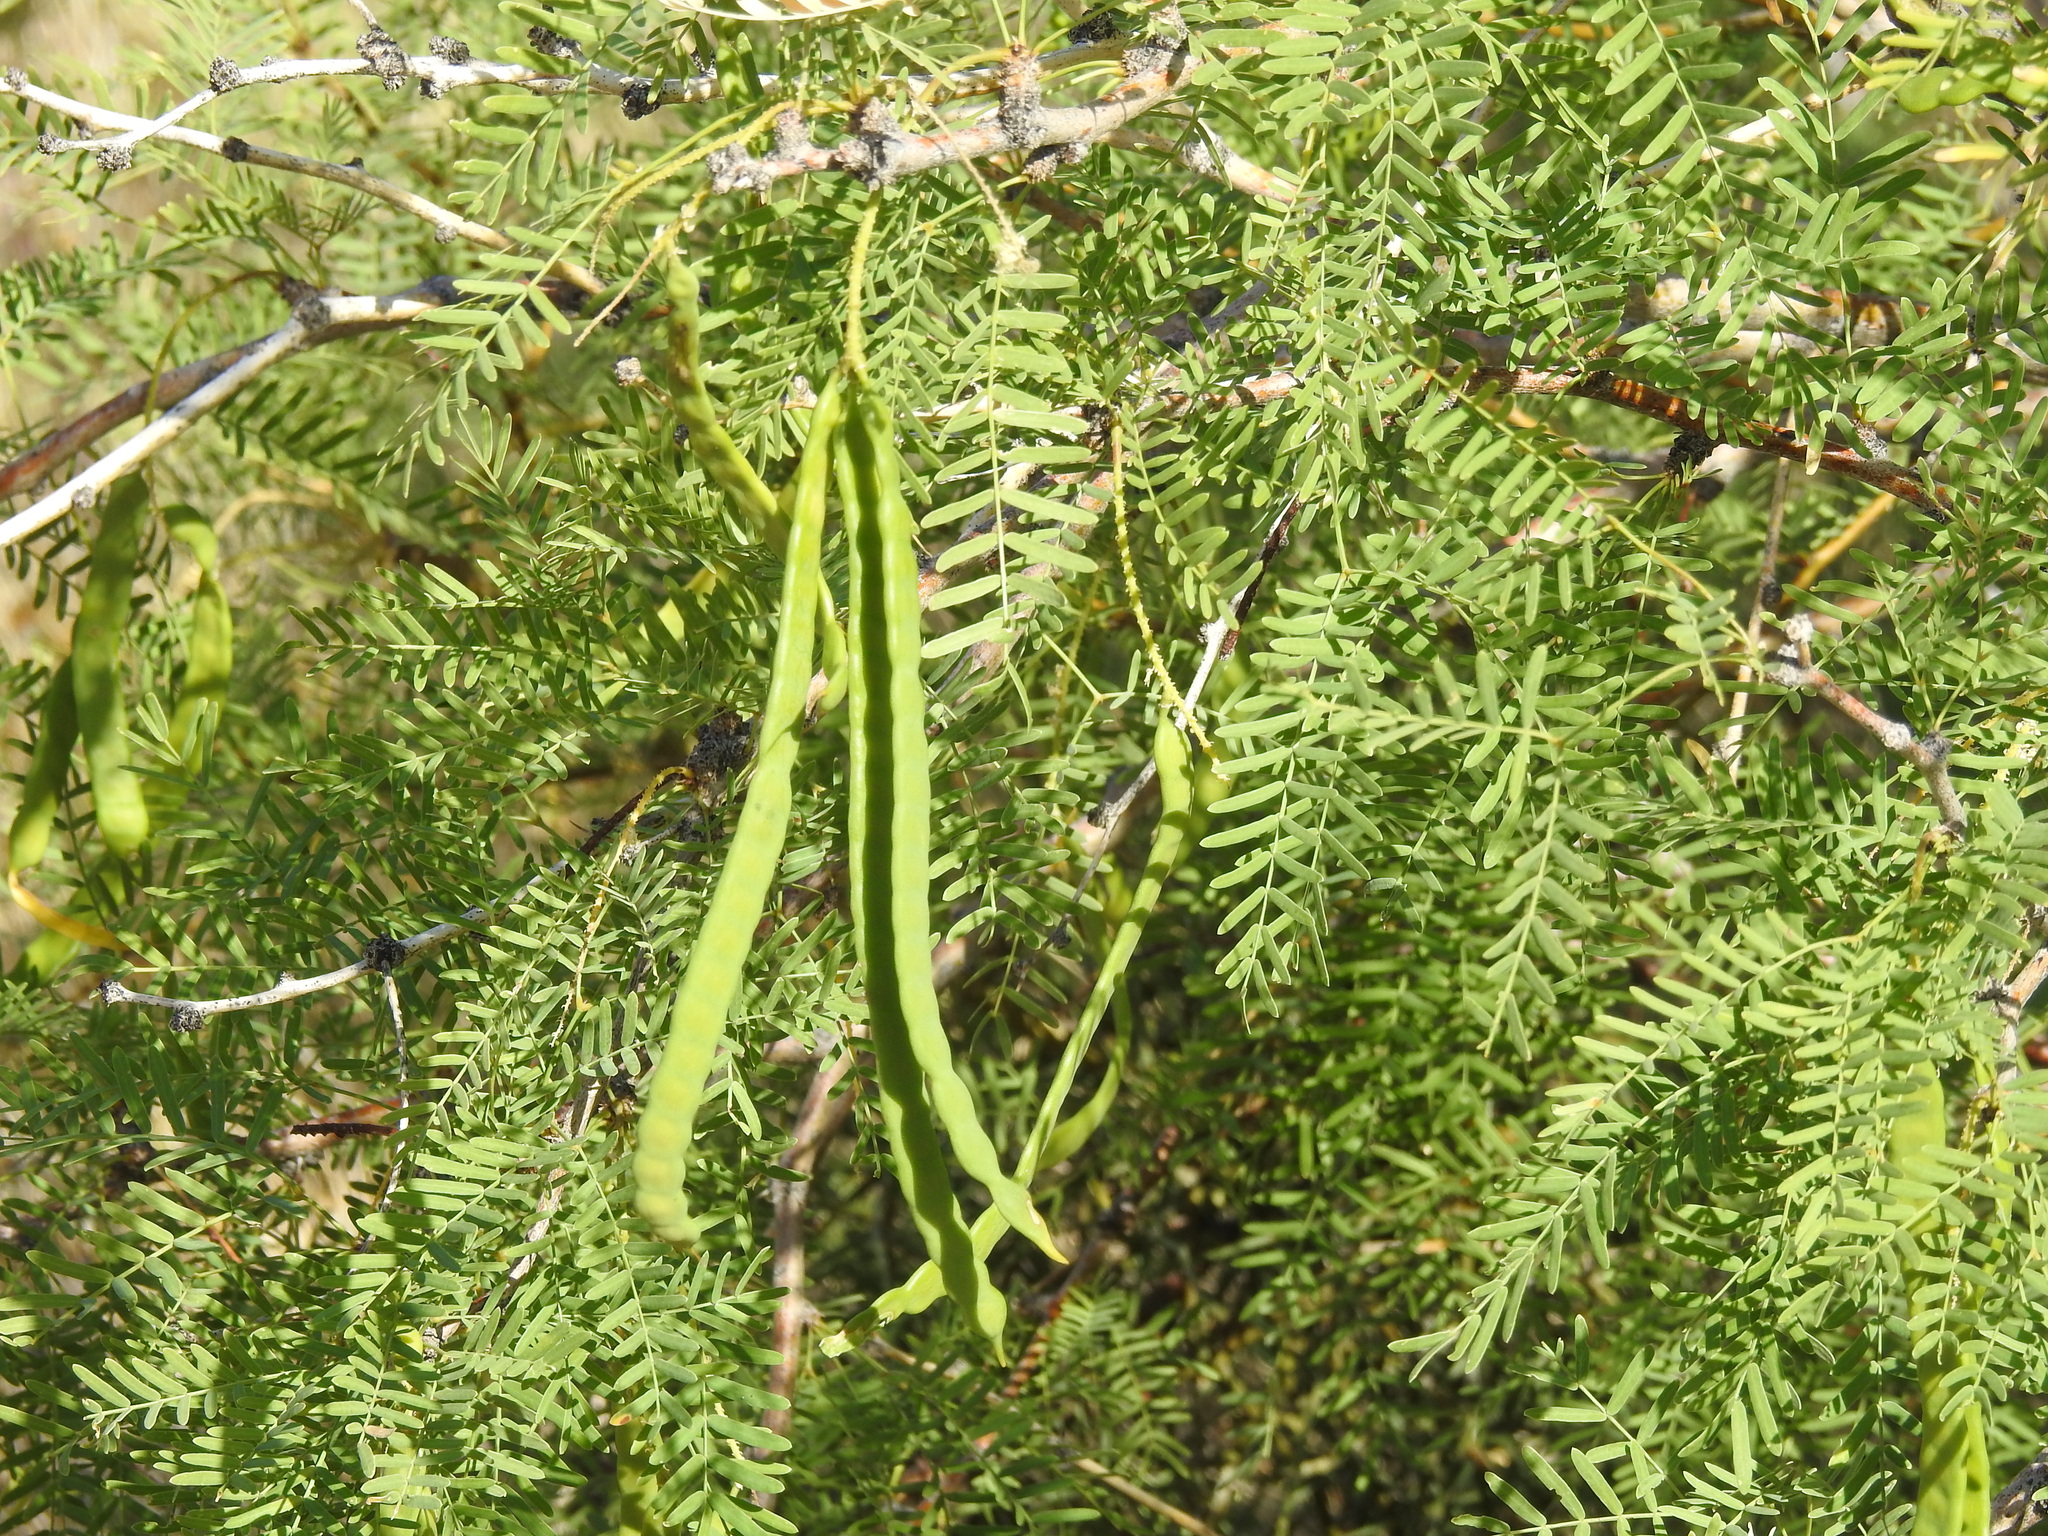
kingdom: Plantae
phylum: Tracheophyta
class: Magnoliopsida
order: Fabales
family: Fabaceae
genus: Prosopis
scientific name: Prosopis pubescens
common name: Screw-bean
